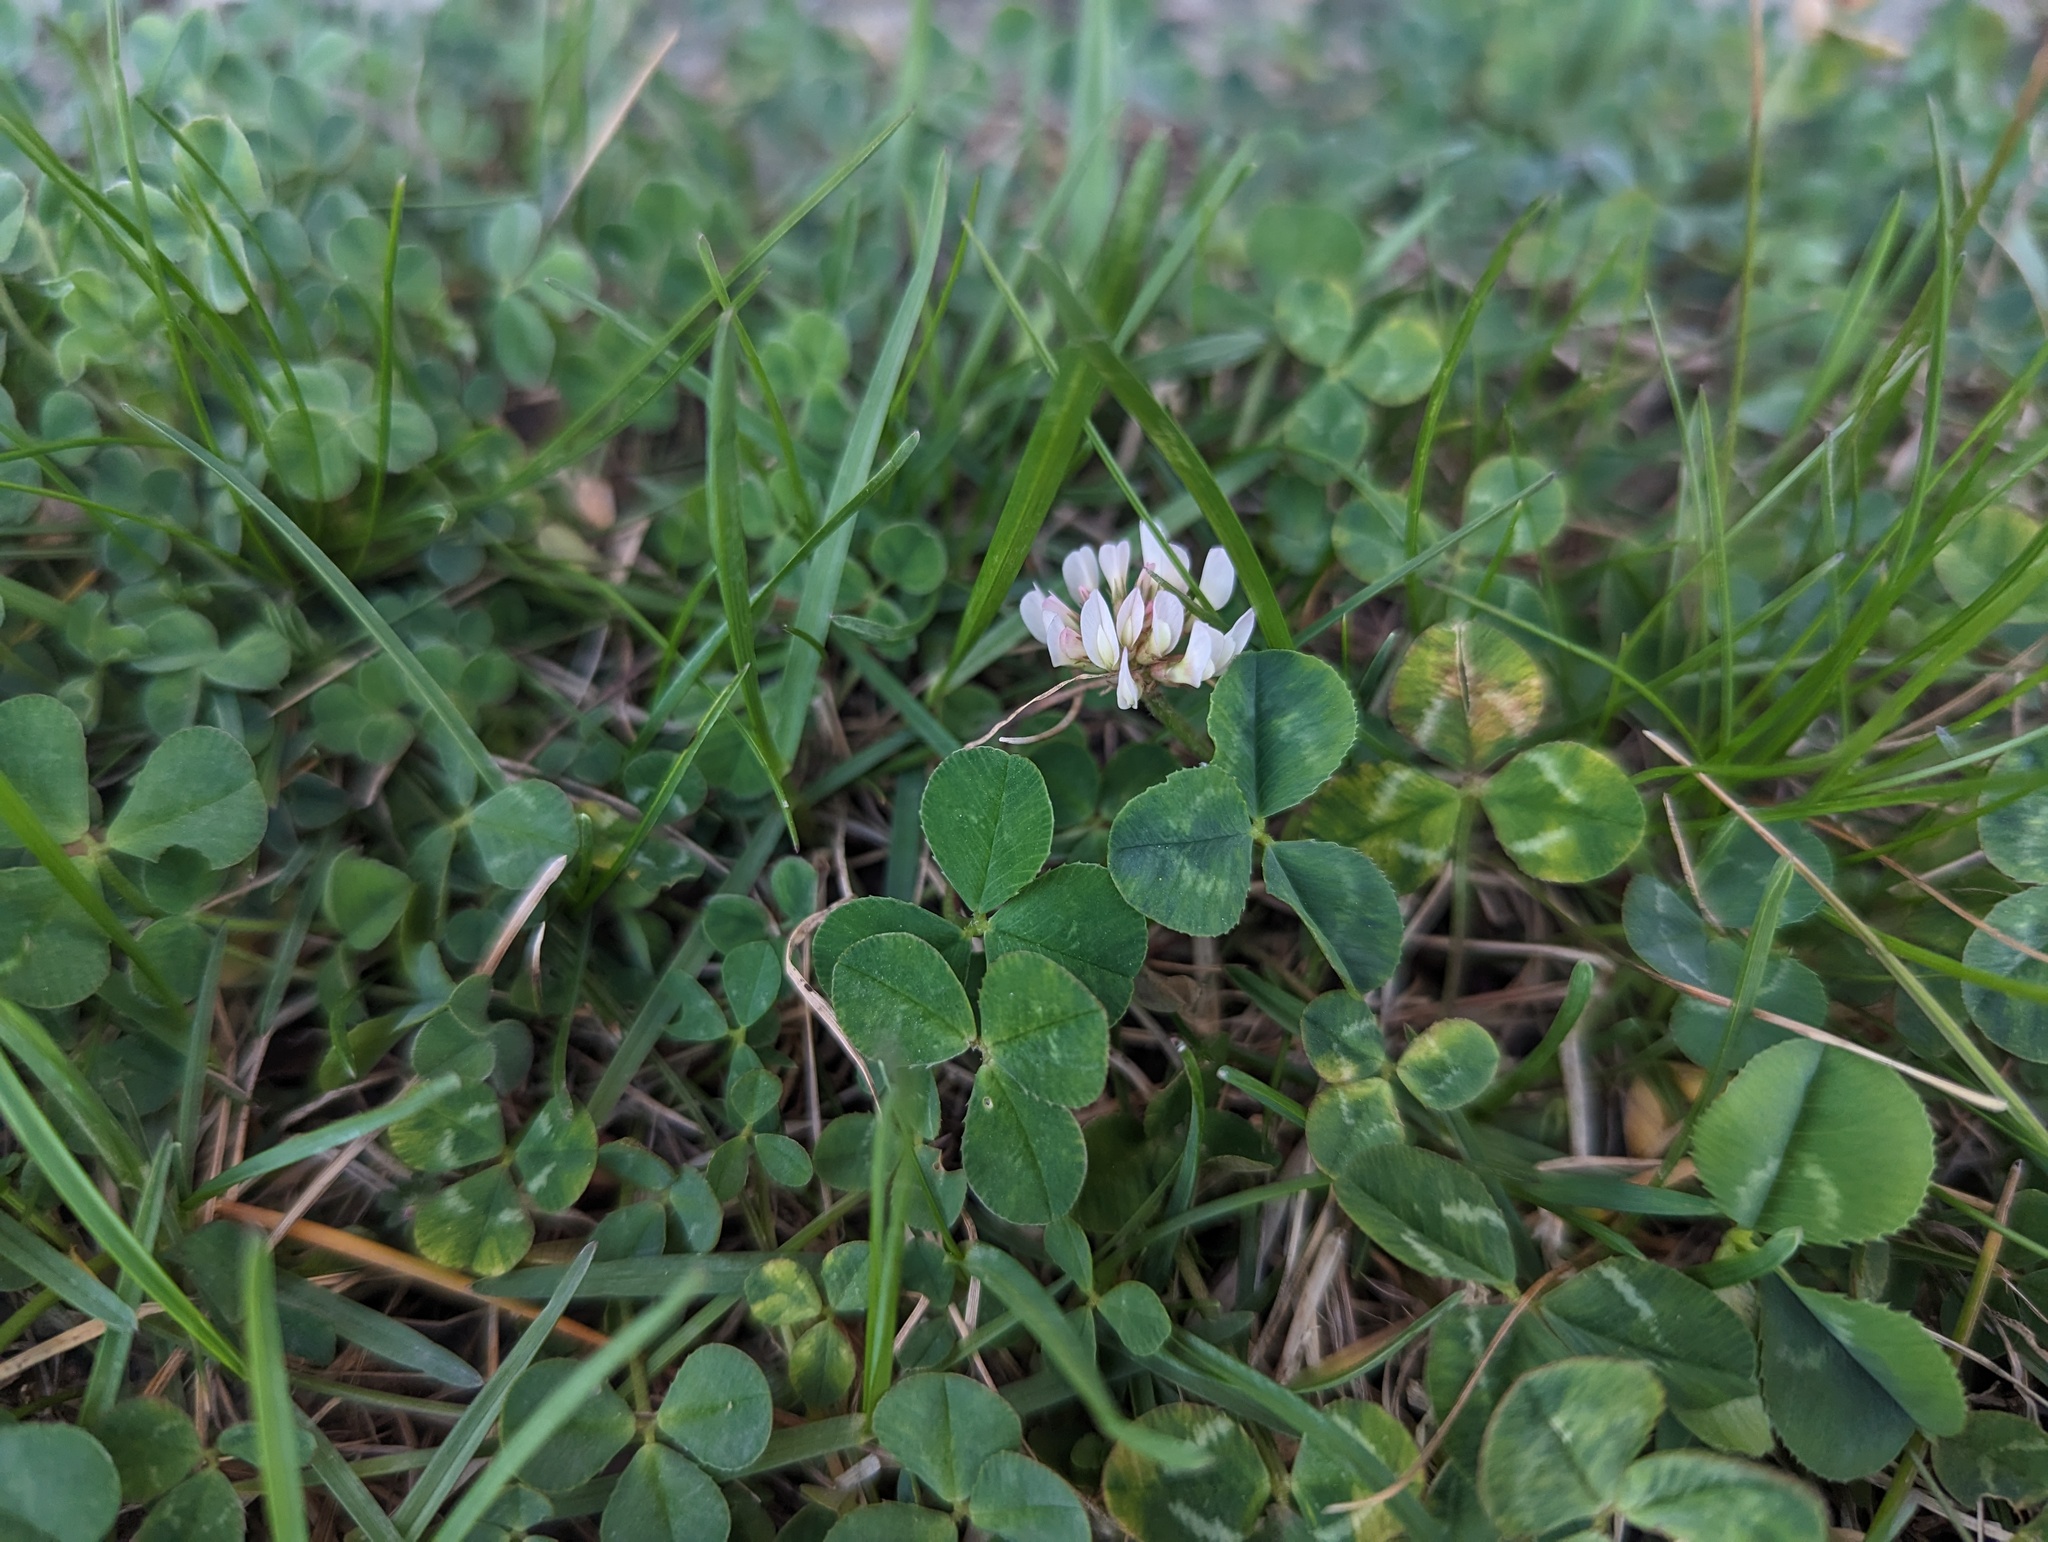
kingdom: Plantae
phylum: Tracheophyta
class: Magnoliopsida
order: Fabales
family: Fabaceae
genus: Trifolium
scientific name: Trifolium repens
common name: White clover
